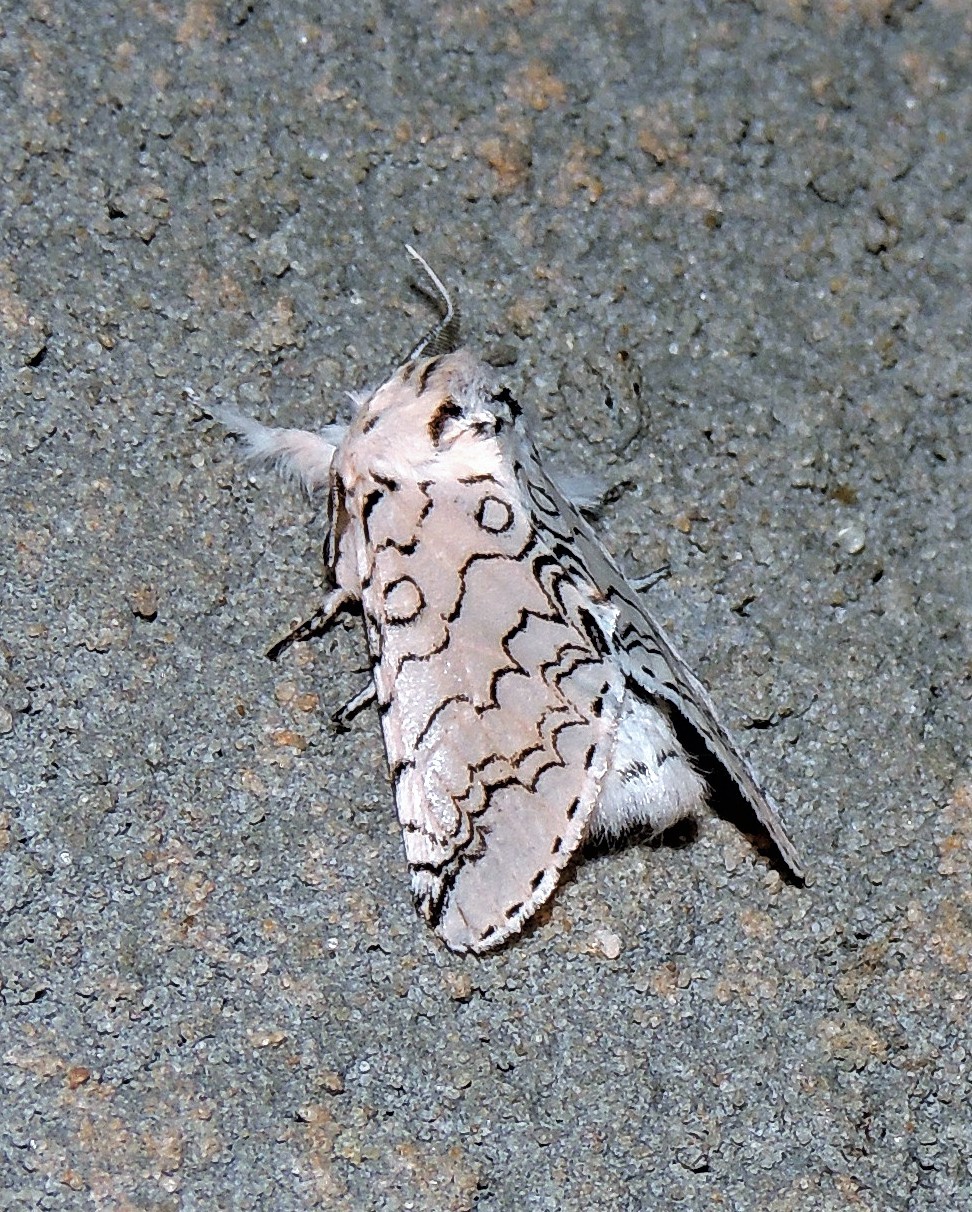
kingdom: Animalia
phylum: Arthropoda
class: Insecta
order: Lepidoptera
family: Notodontidae
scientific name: Notodontidae
